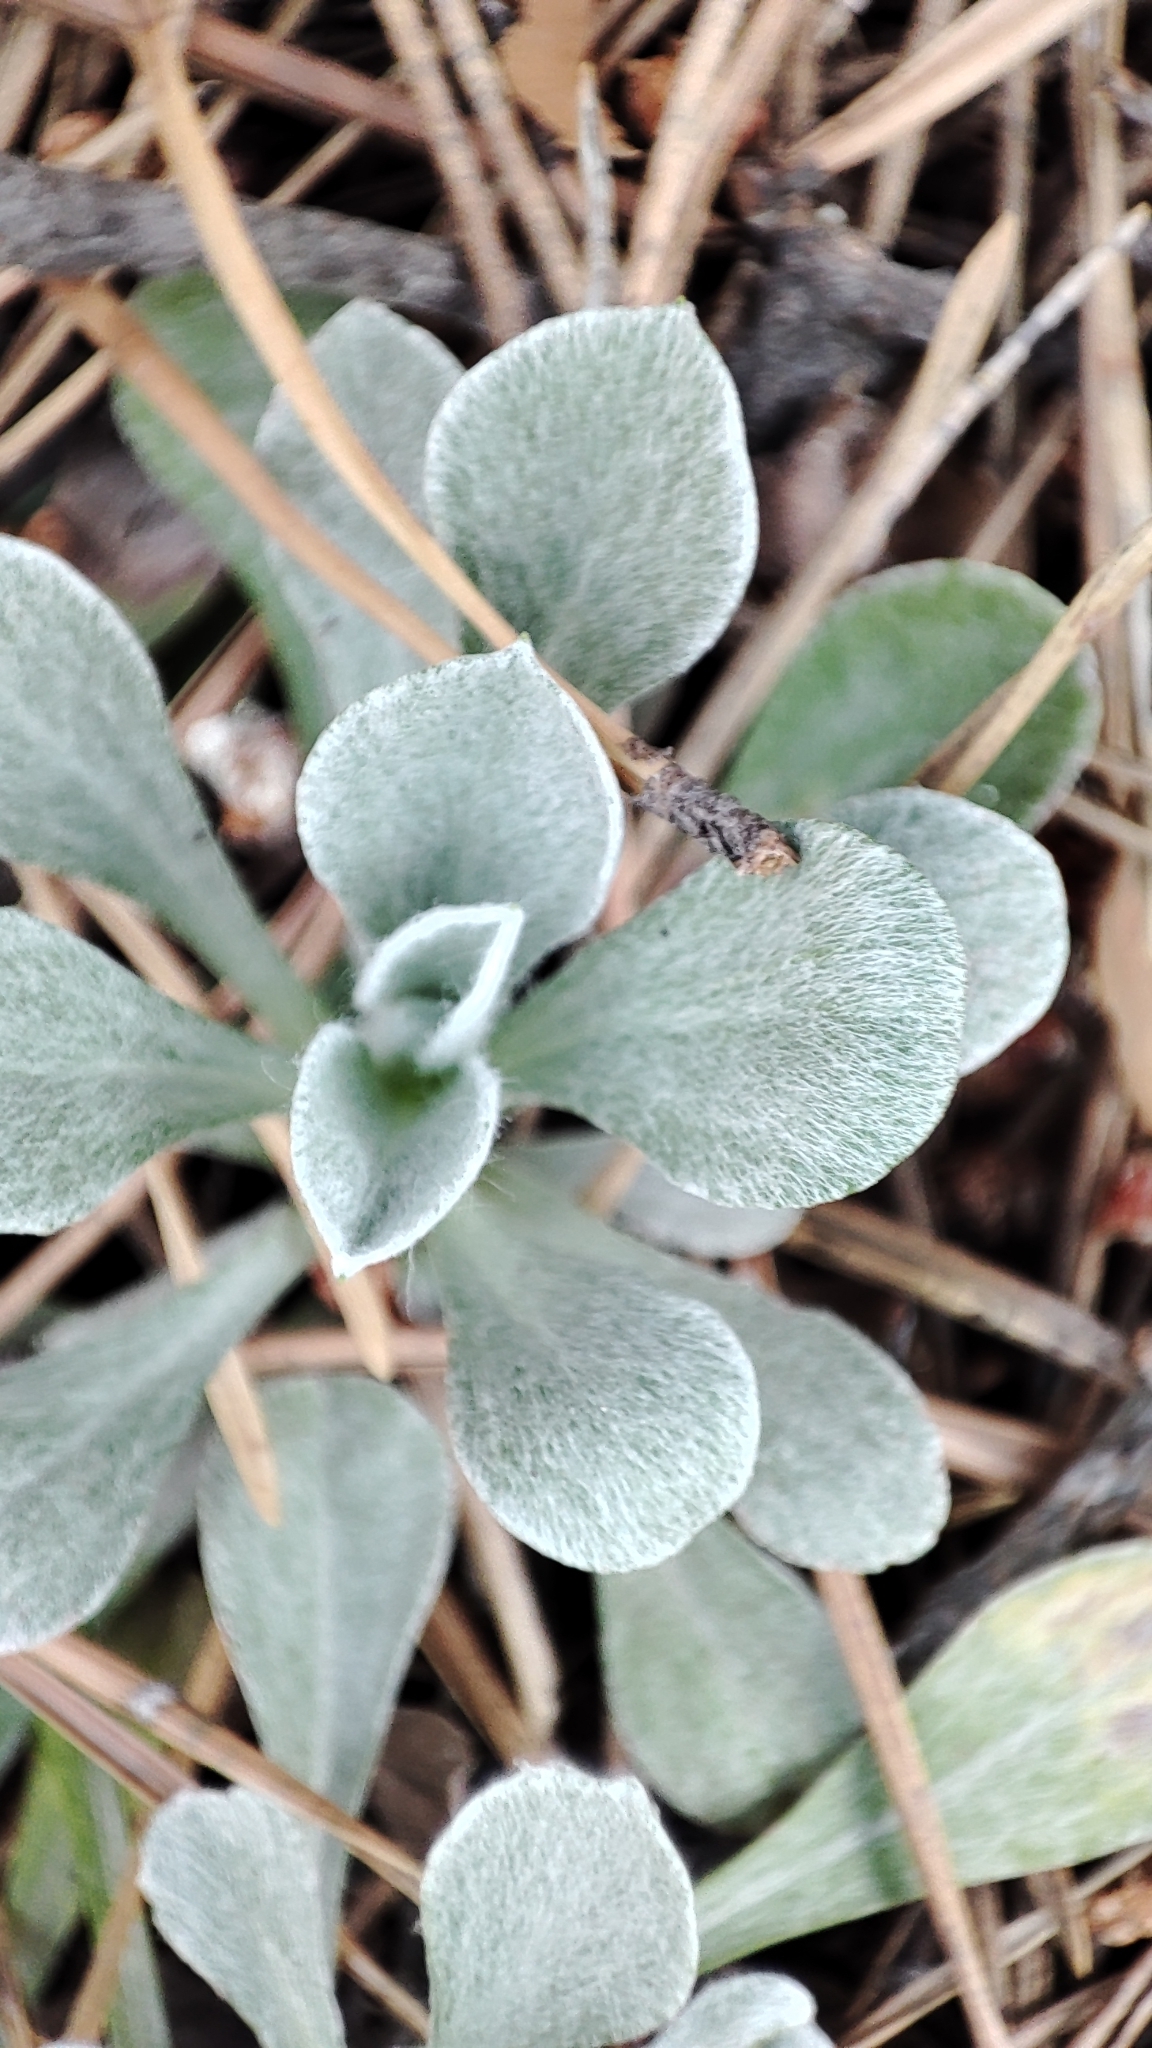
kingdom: Plantae
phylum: Tracheophyta
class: Magnoliopsida
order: Asterales
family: Asteraceae
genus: Antennaria
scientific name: Antennaria dioica
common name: Mountain everlasting
